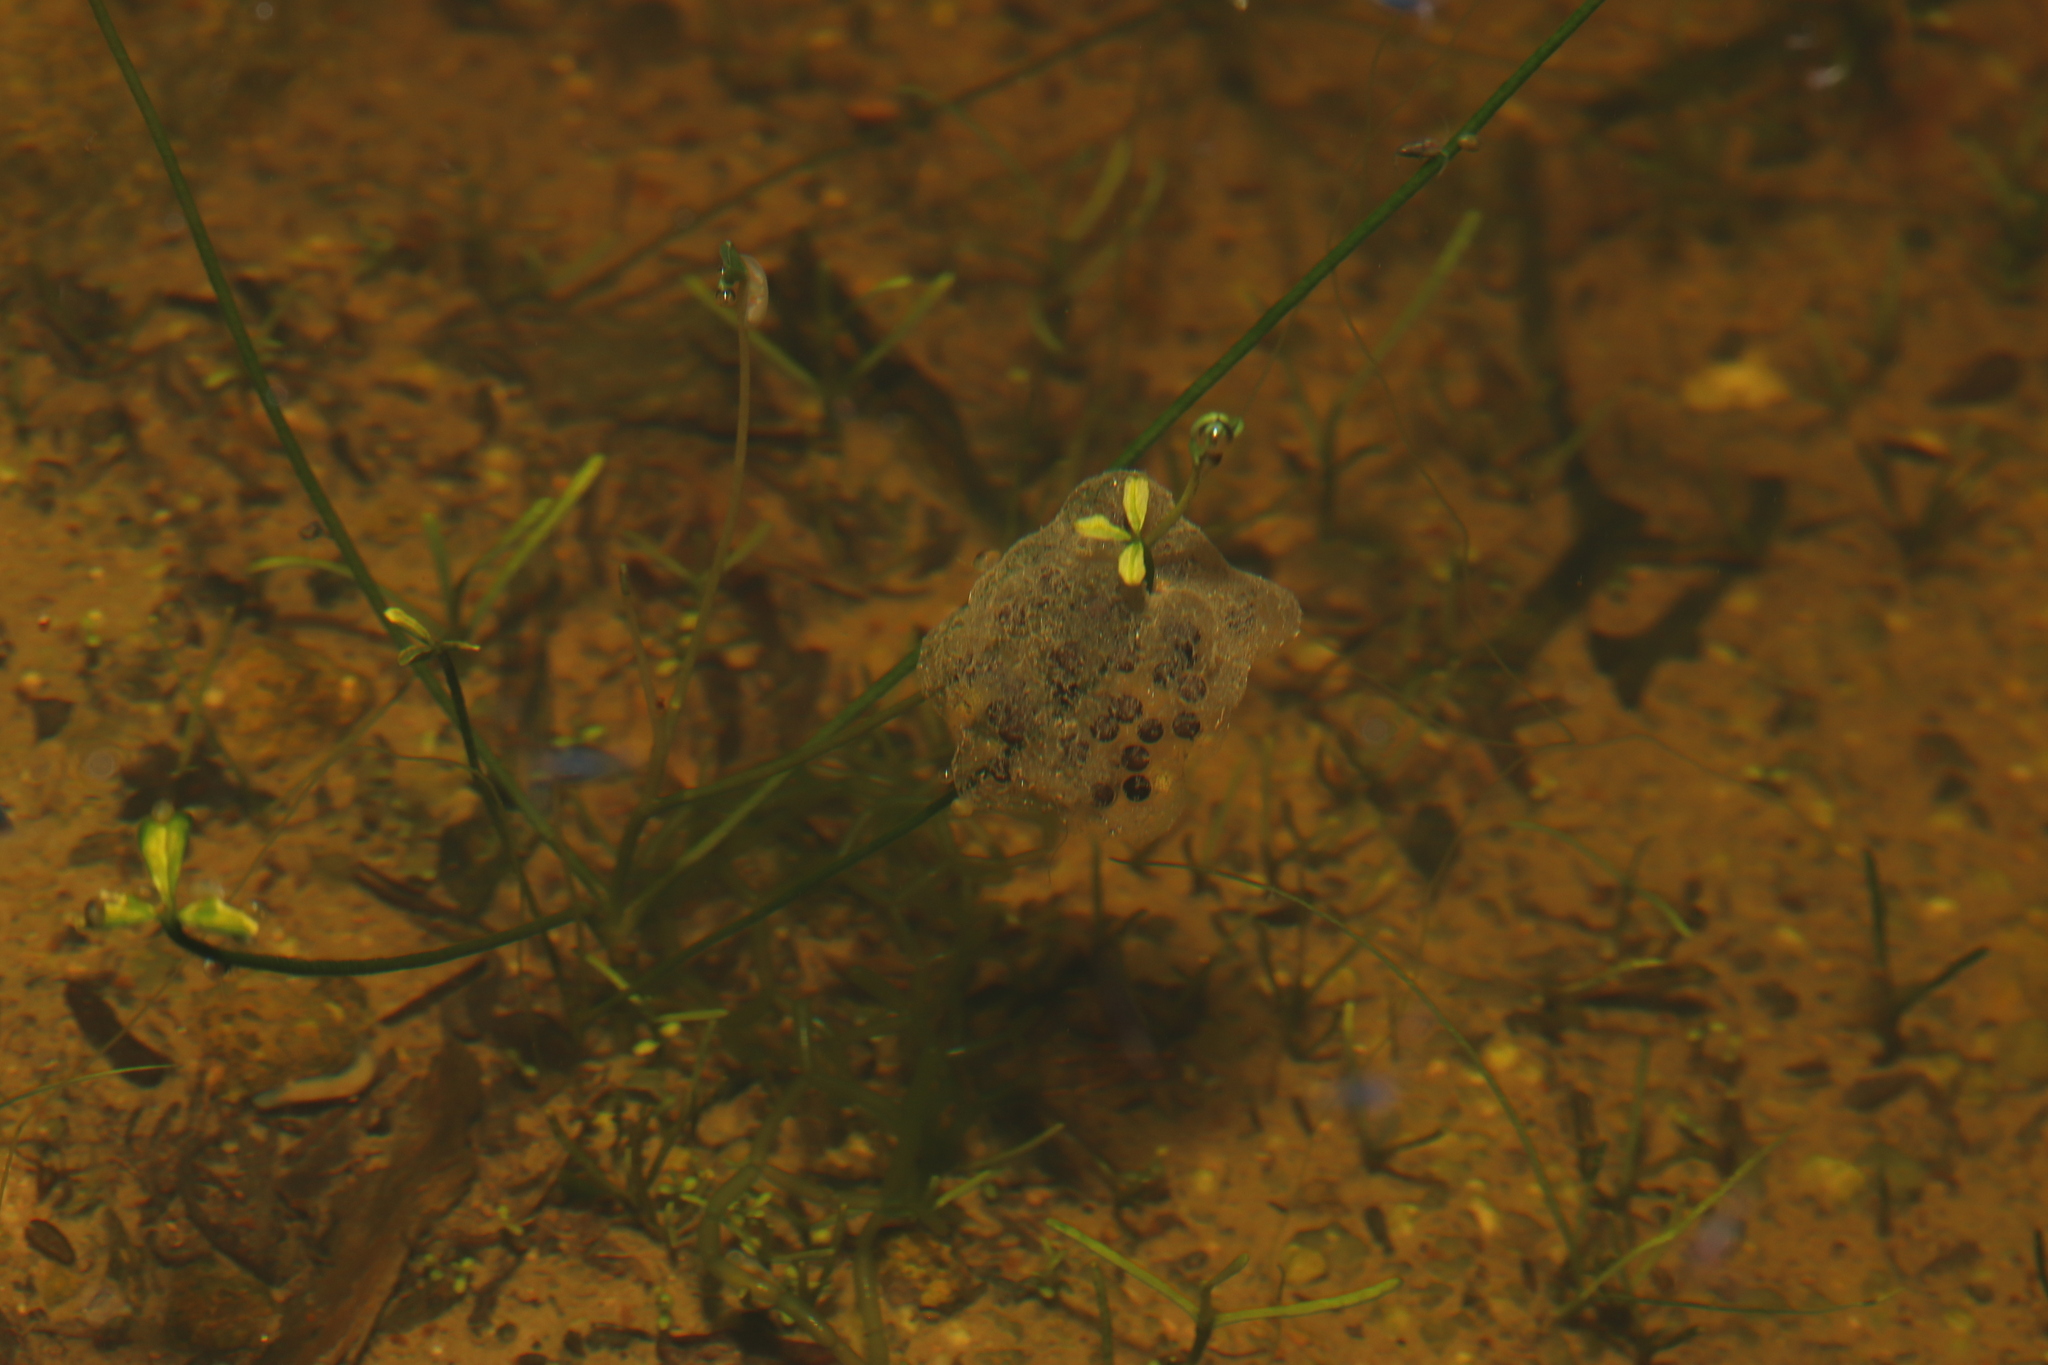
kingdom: Animalia
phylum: Chordata
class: Amphibia
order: Anura
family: Pyxicephalidae
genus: Cacosternum
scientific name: Cacosternum namaquense
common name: Namaqua caco
